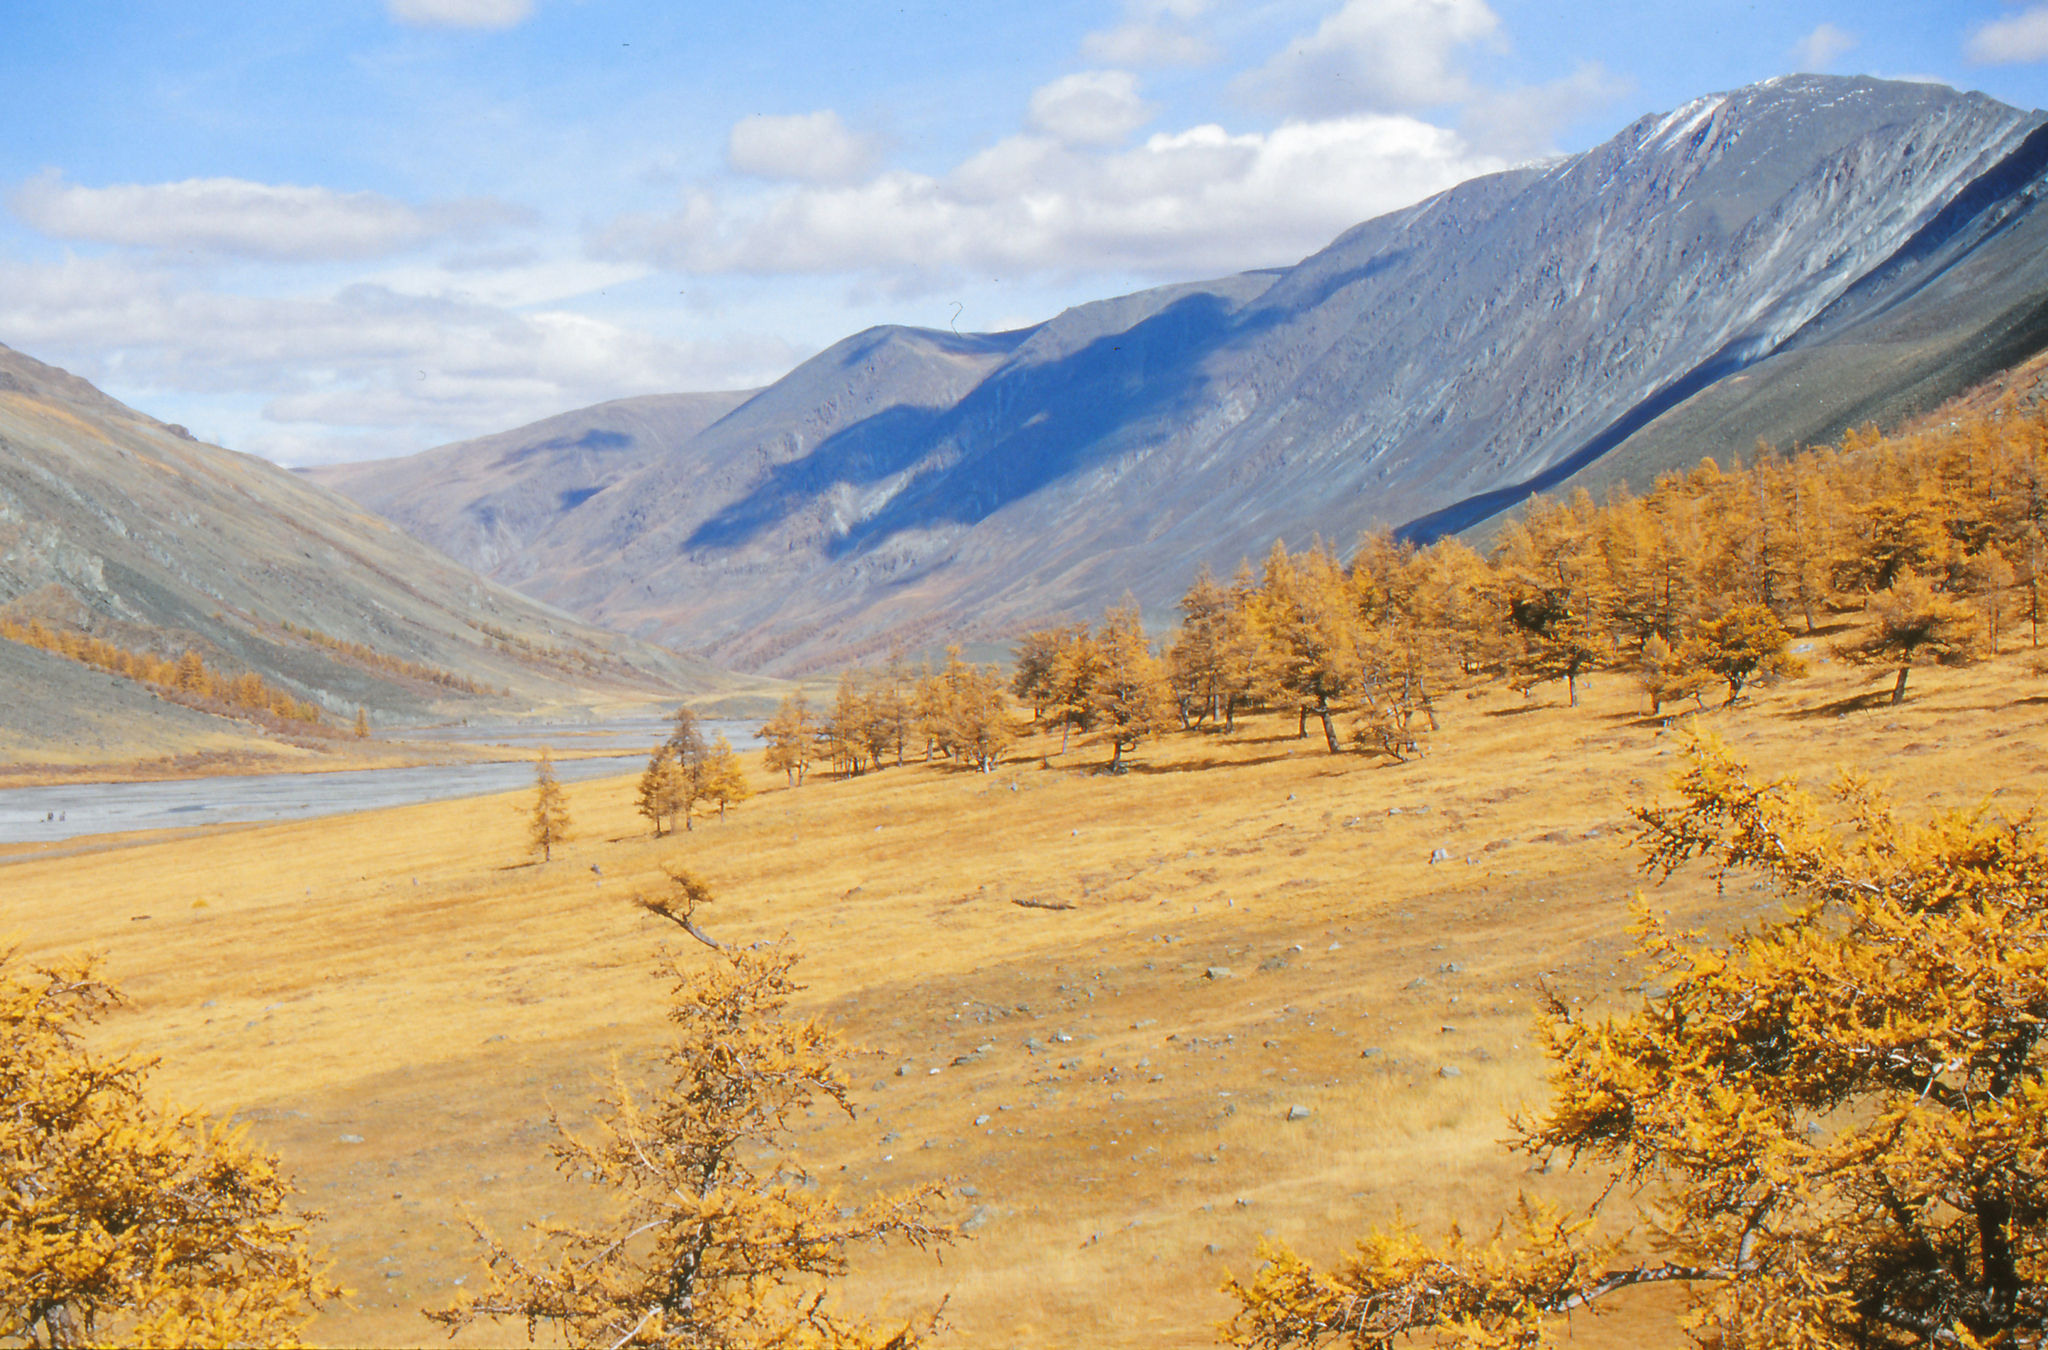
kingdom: Plantae
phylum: Tracheophyta
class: Pinopsida
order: Pinales
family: Pinaceae
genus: Larix
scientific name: Larix sibirica
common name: Siberian larch
